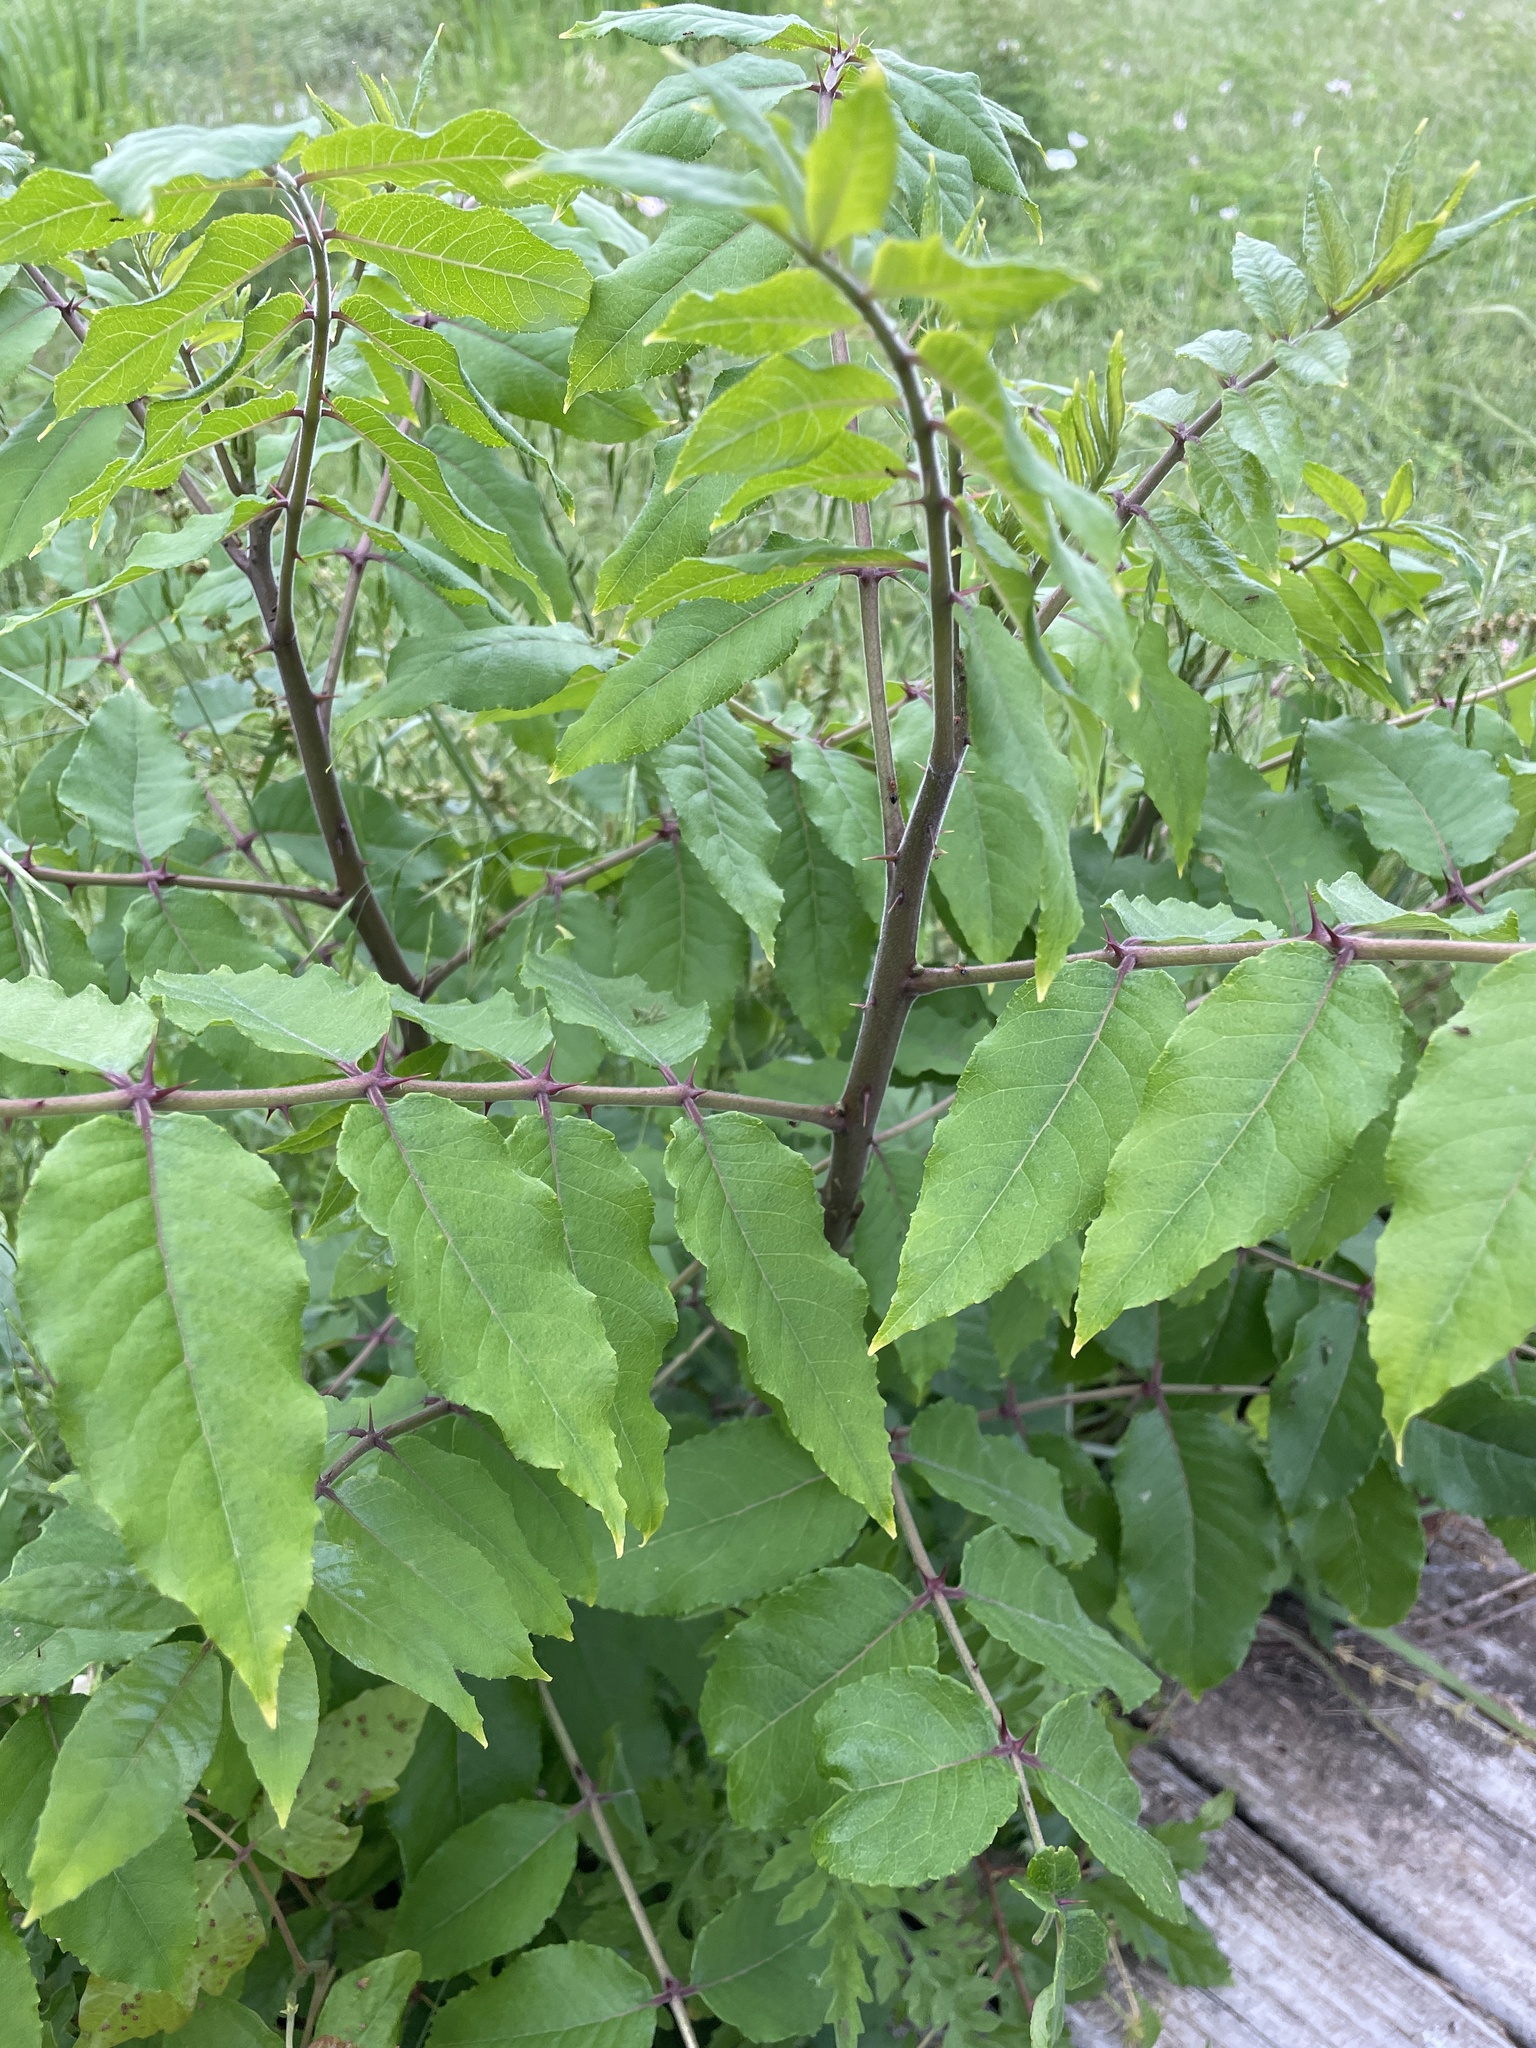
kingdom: Plantae
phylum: Tracheophyta
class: Magnoliopsida
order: Sapindales
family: Rutaceae
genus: Zanthoxylum
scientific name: Zanthoxylum clava-herculis
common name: Hercules'-club
